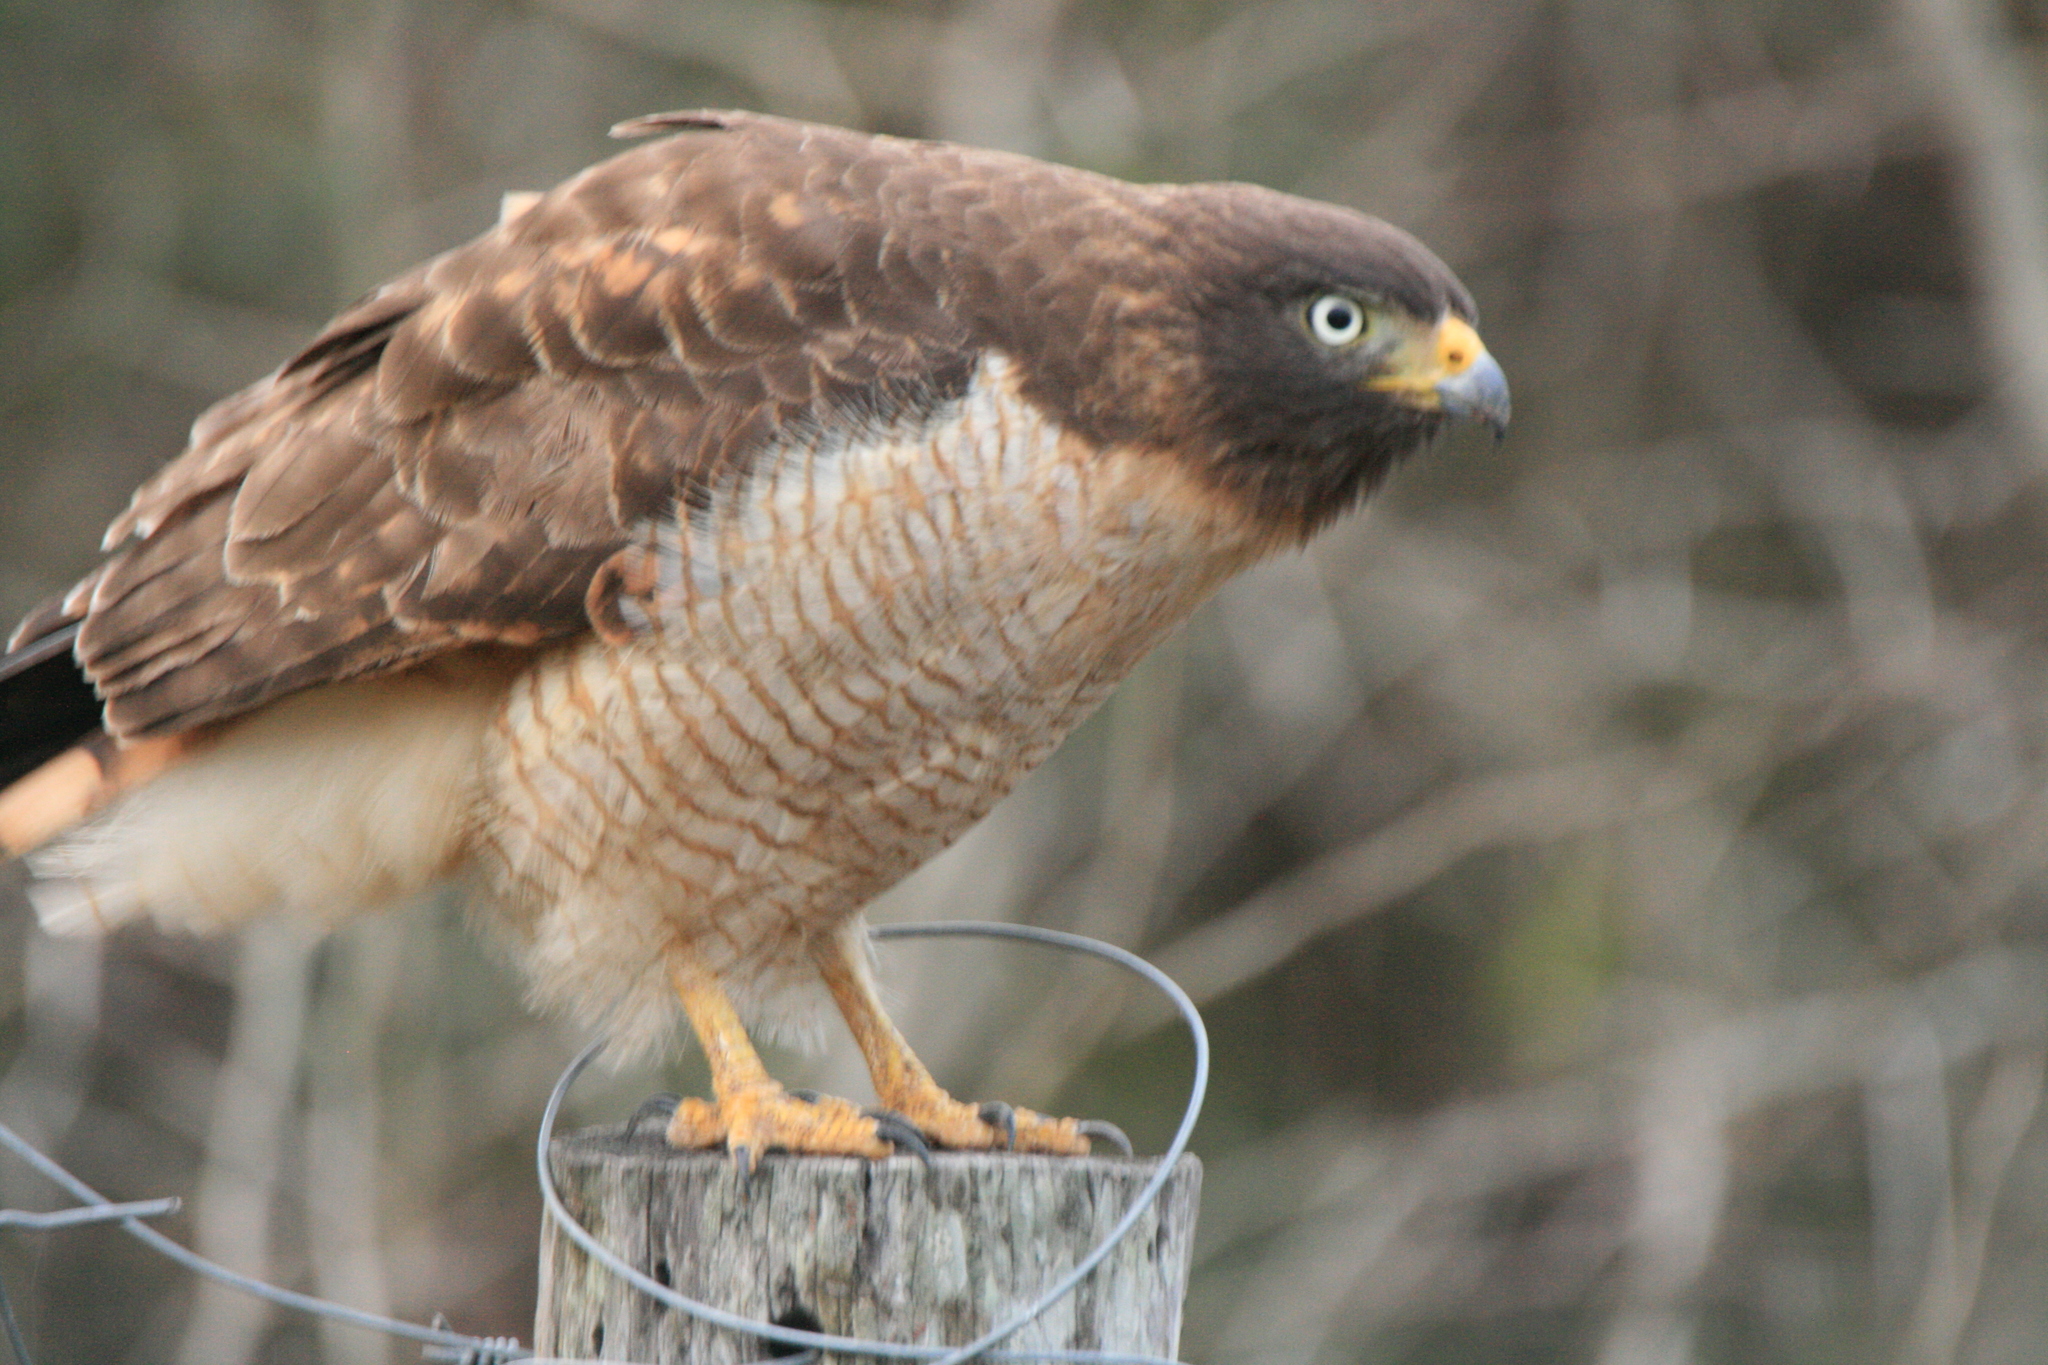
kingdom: Animalia
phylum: Chordata
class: Aves
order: Accipitriformes
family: Accipitridae
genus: Rupornis
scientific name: Rupornis magnirostris
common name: Roadside hawk
